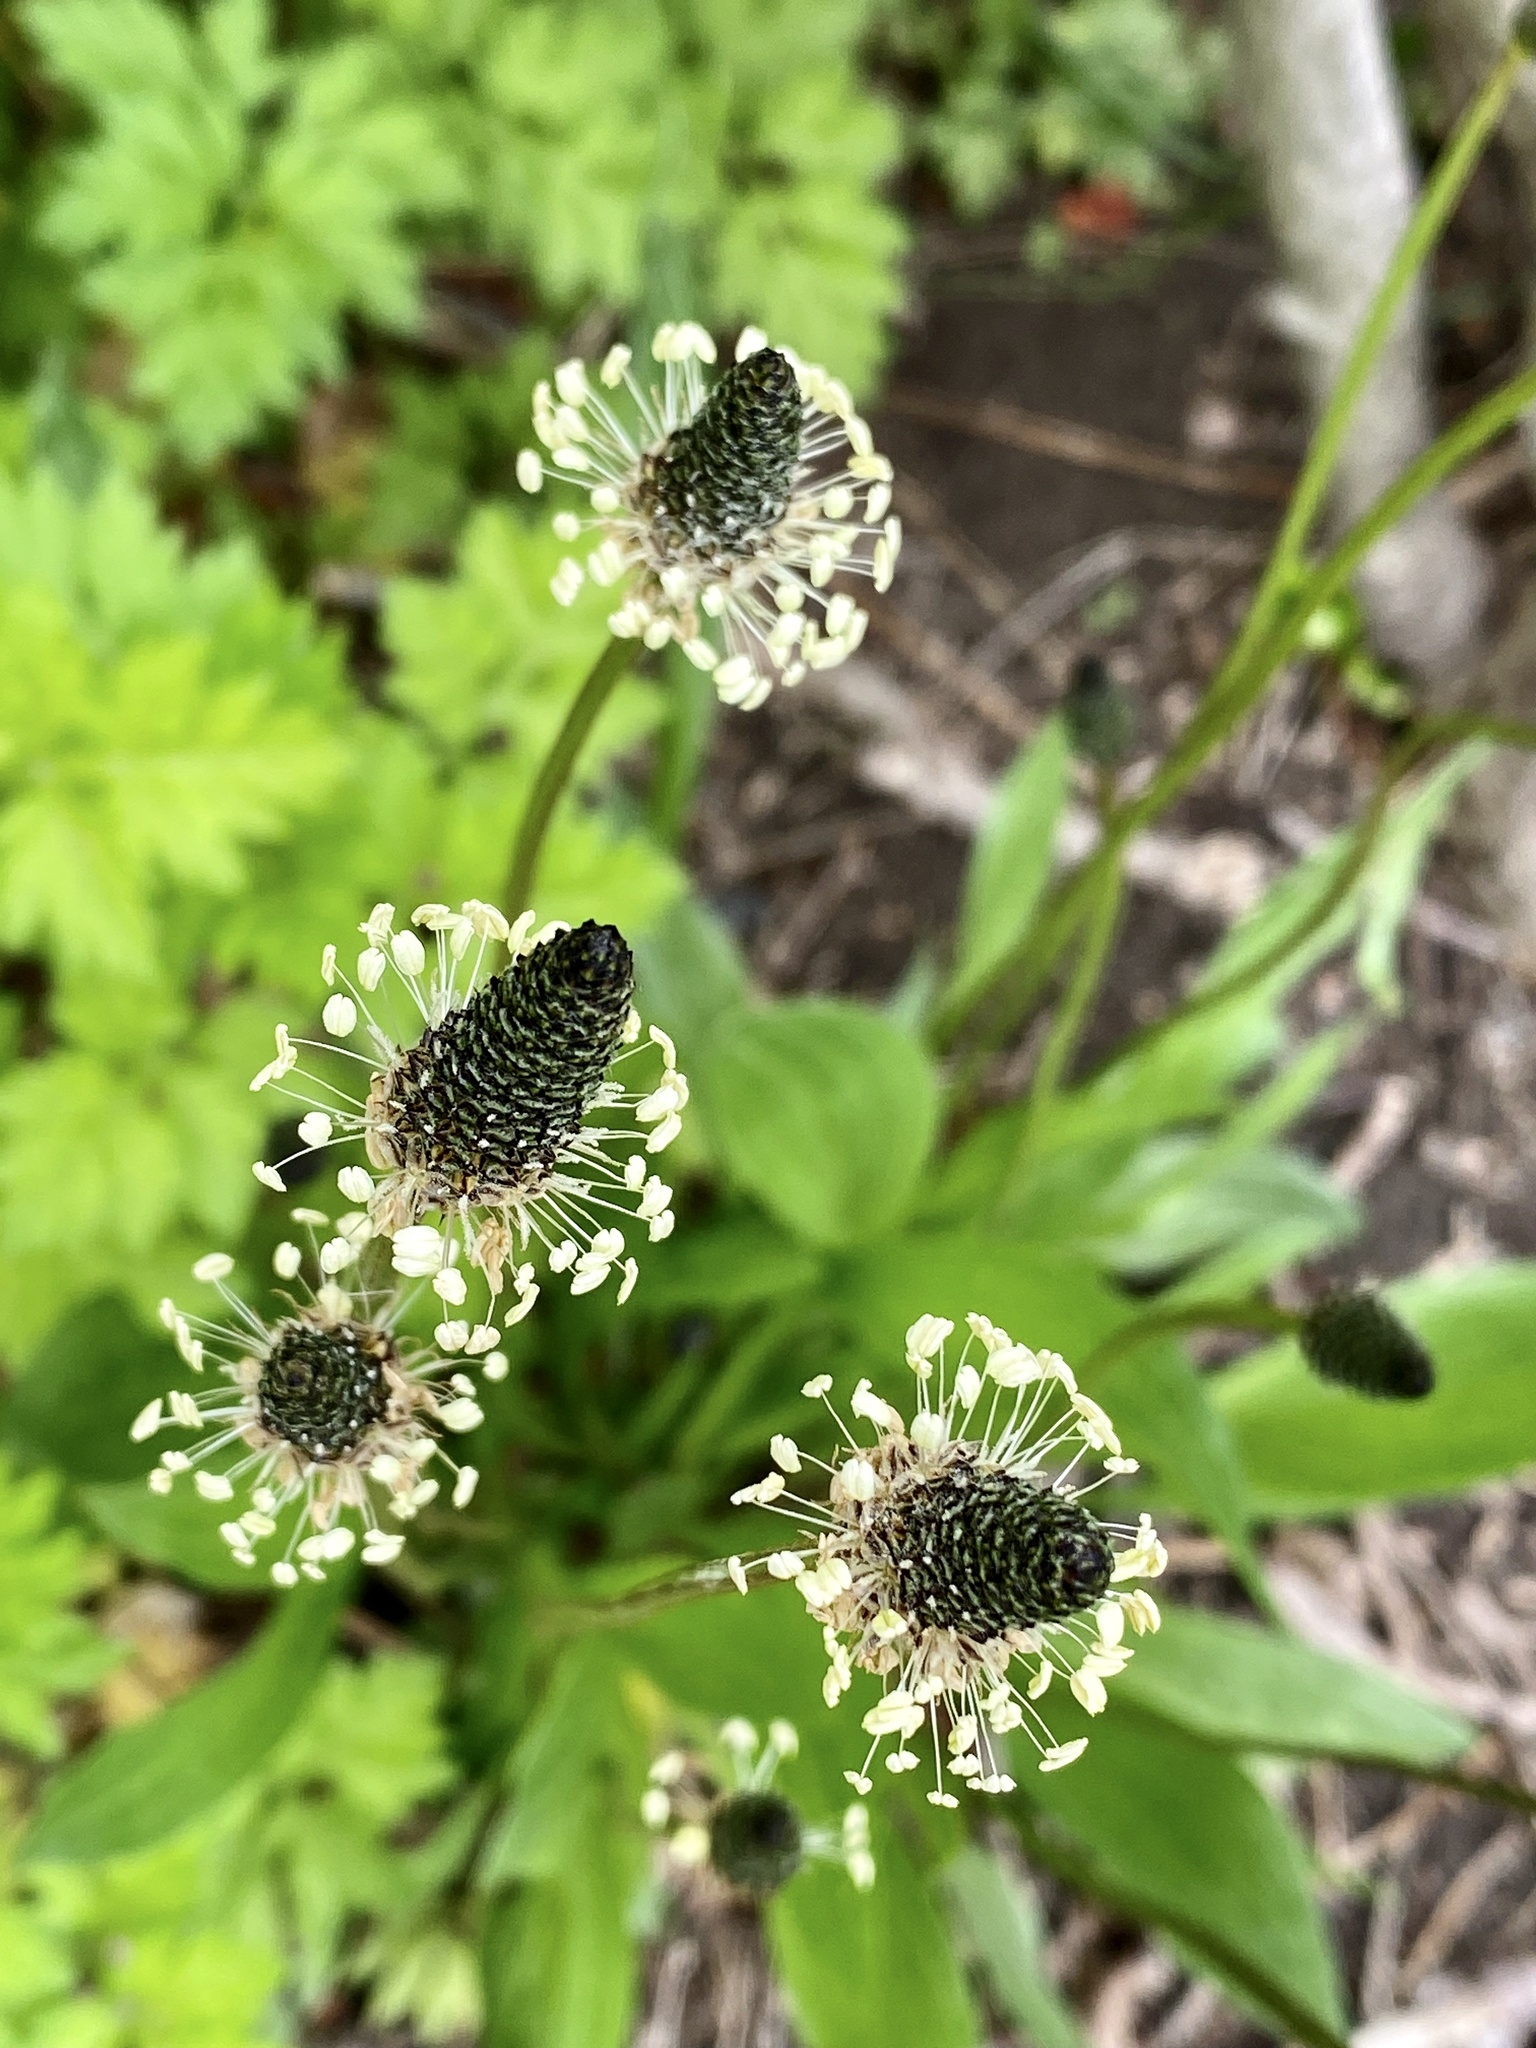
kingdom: Plantae
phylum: Tracheophyta
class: Magnoliopsida
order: Lamiales
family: Plantaginaceae
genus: Plantago
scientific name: Plantago lanceolata
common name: Ribwort plantain
